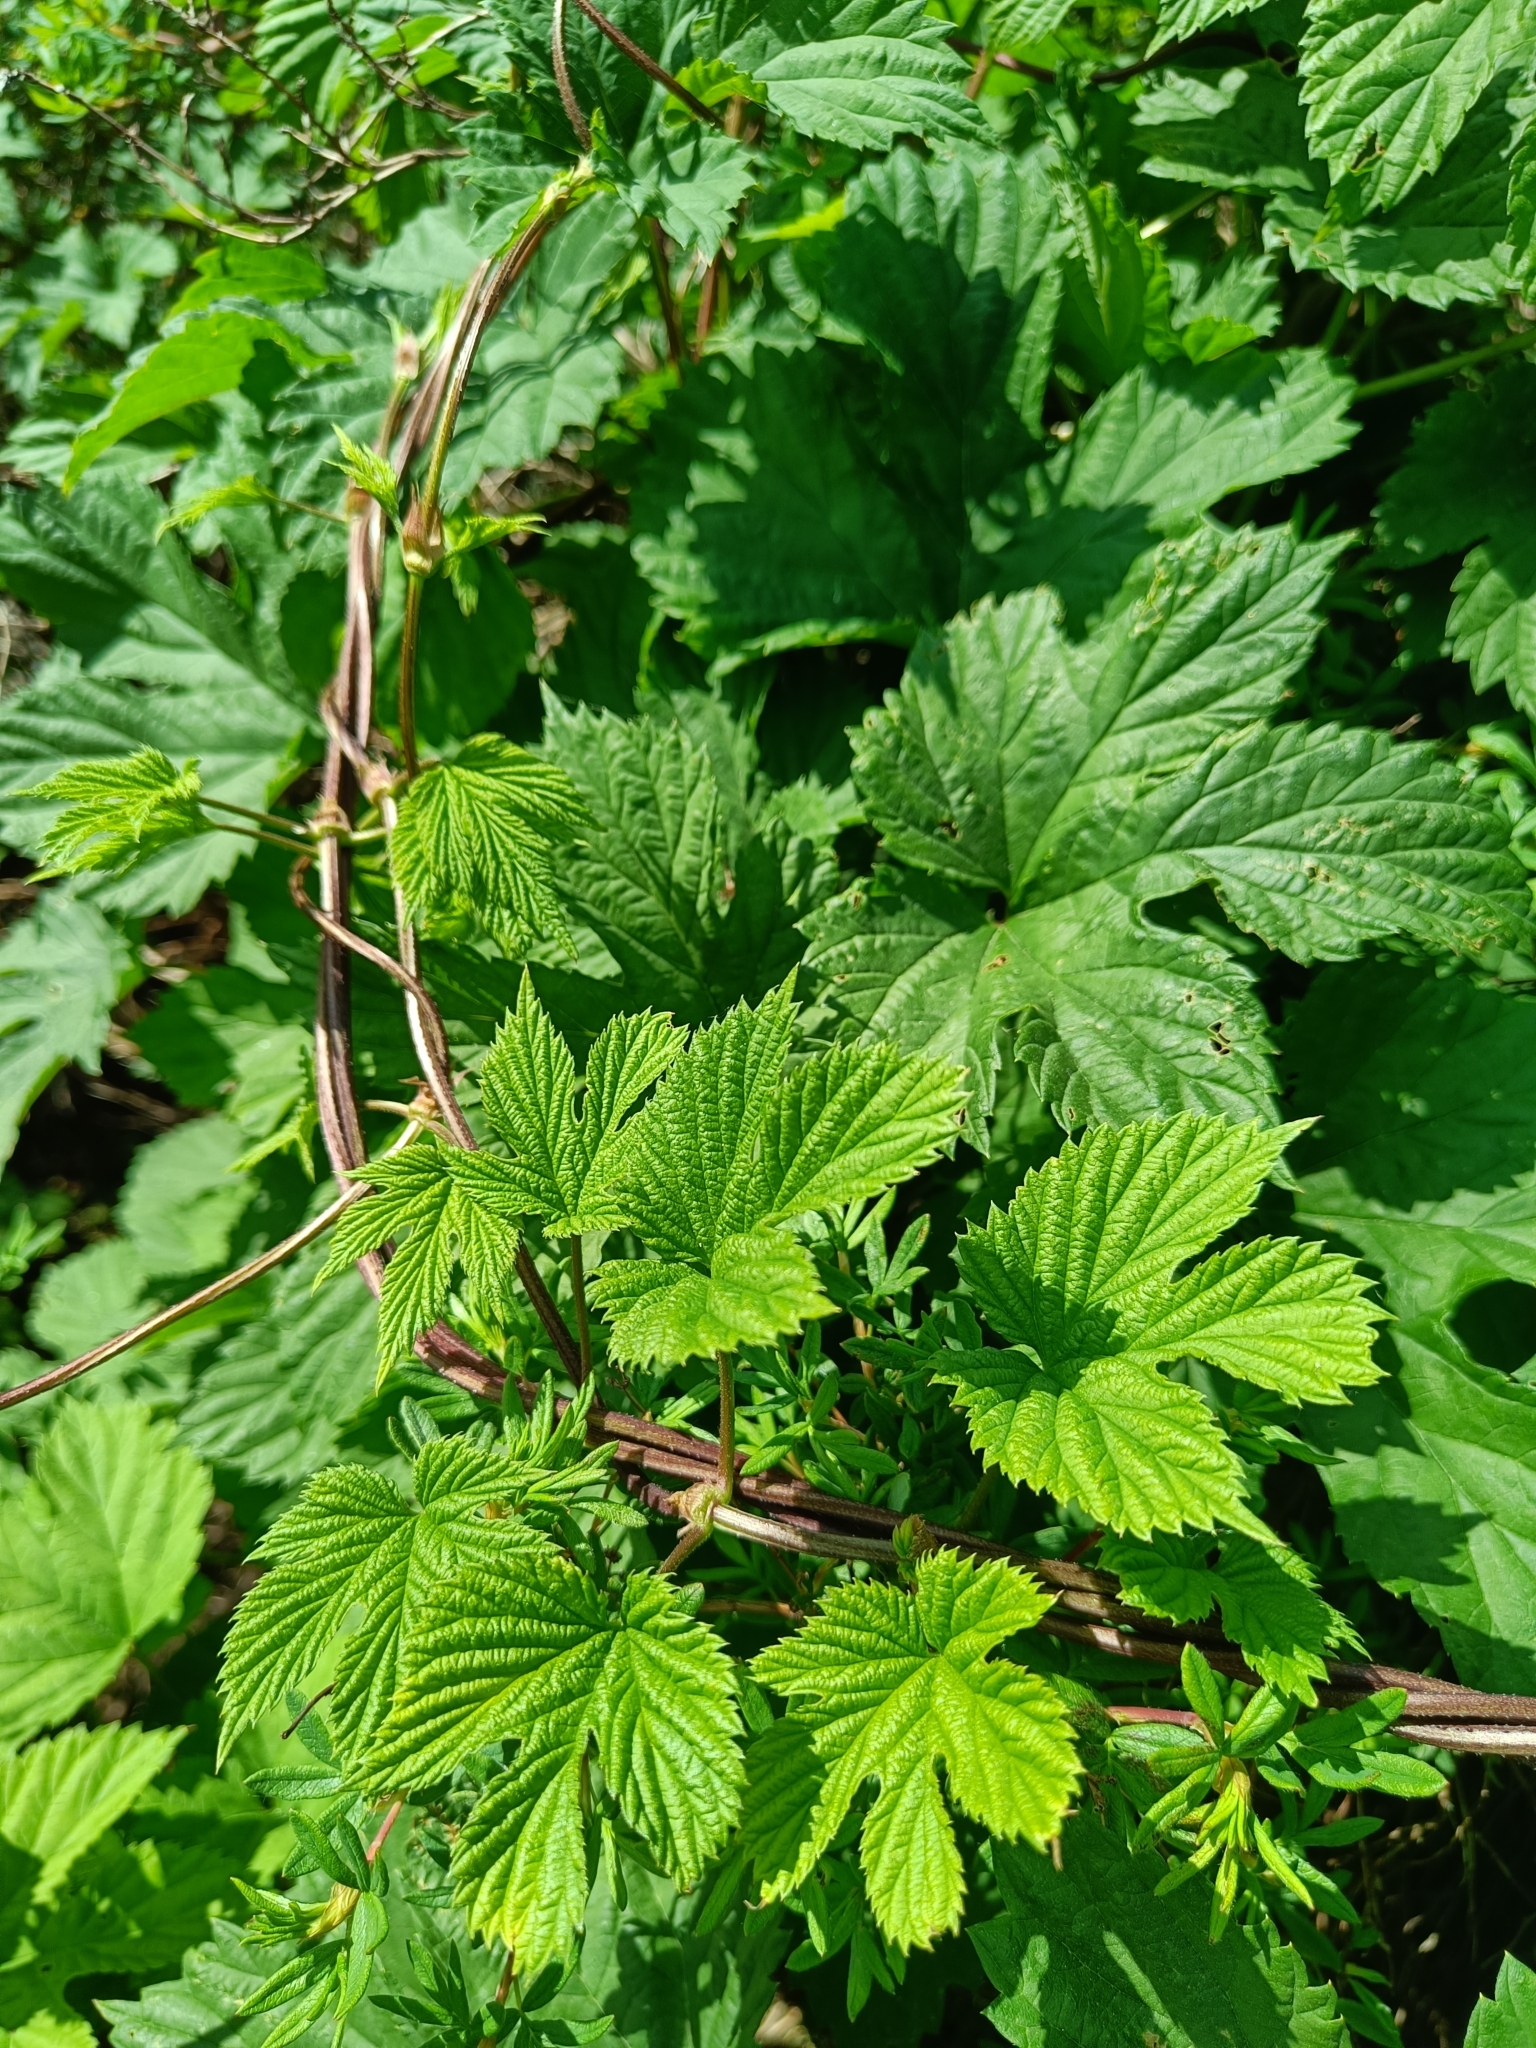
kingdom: Plantae
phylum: Tracheophyta
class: Magnoliopsida
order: Rosales
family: Cannabaceae
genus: Humulus
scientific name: Humulus lupulus
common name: Hop
